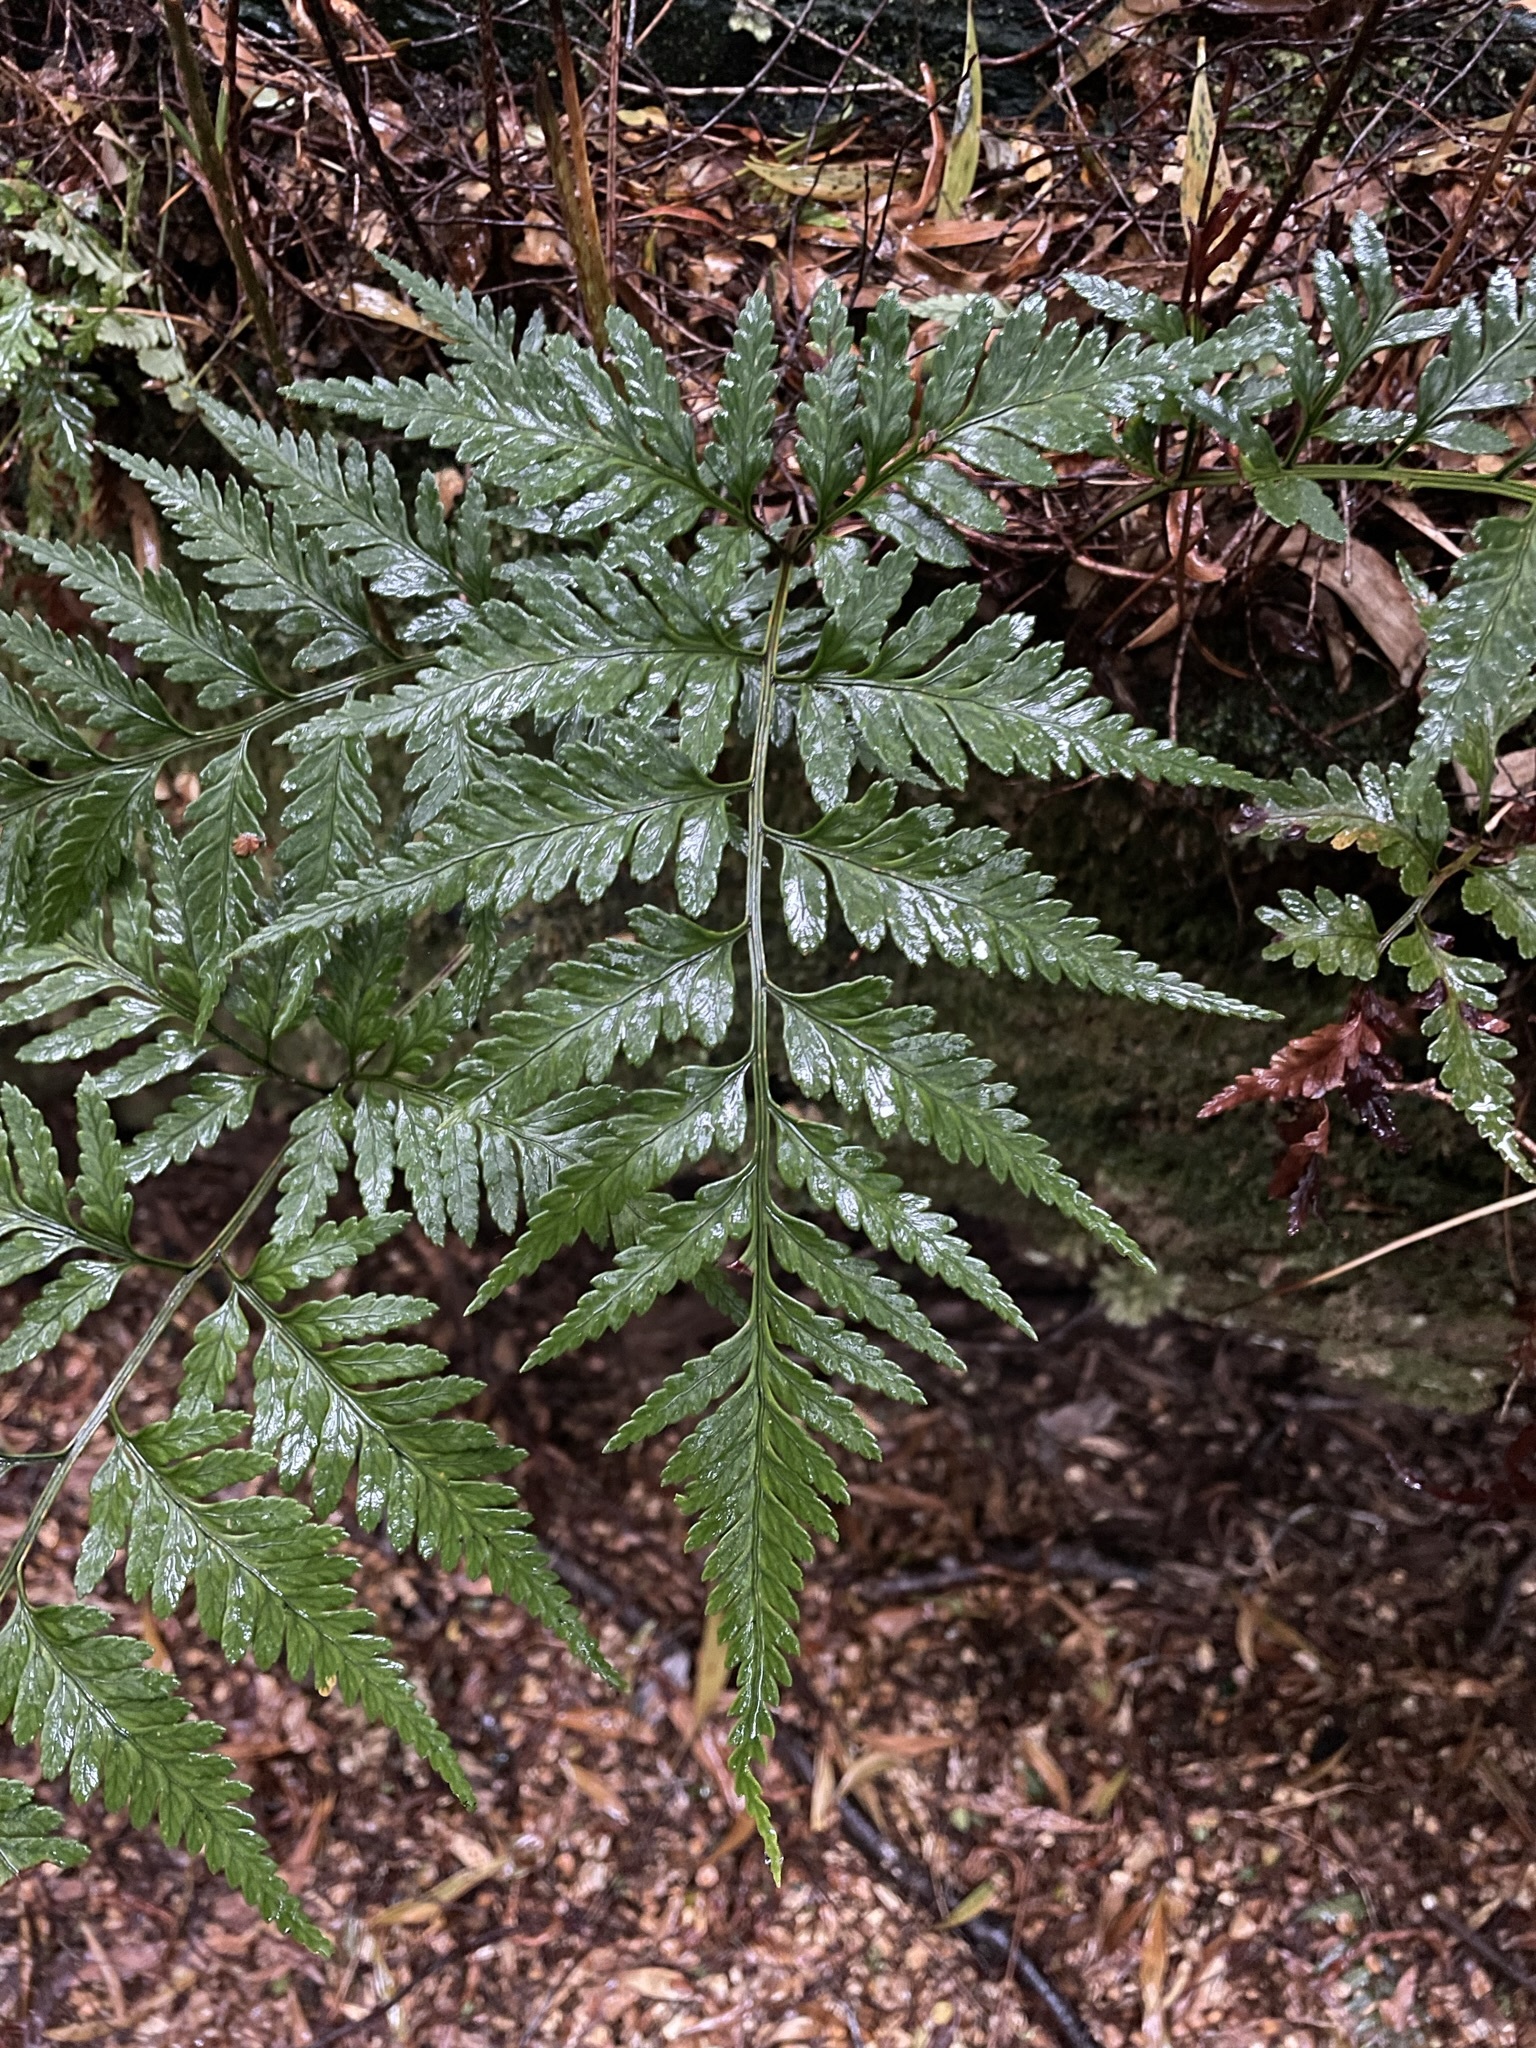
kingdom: Plantae
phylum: Tracheophyta
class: Polypodiopsida
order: Polypodiales
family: Dryopteridaceae
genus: Rumohra
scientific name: Rumohra adiantiformis
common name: Leather fern
